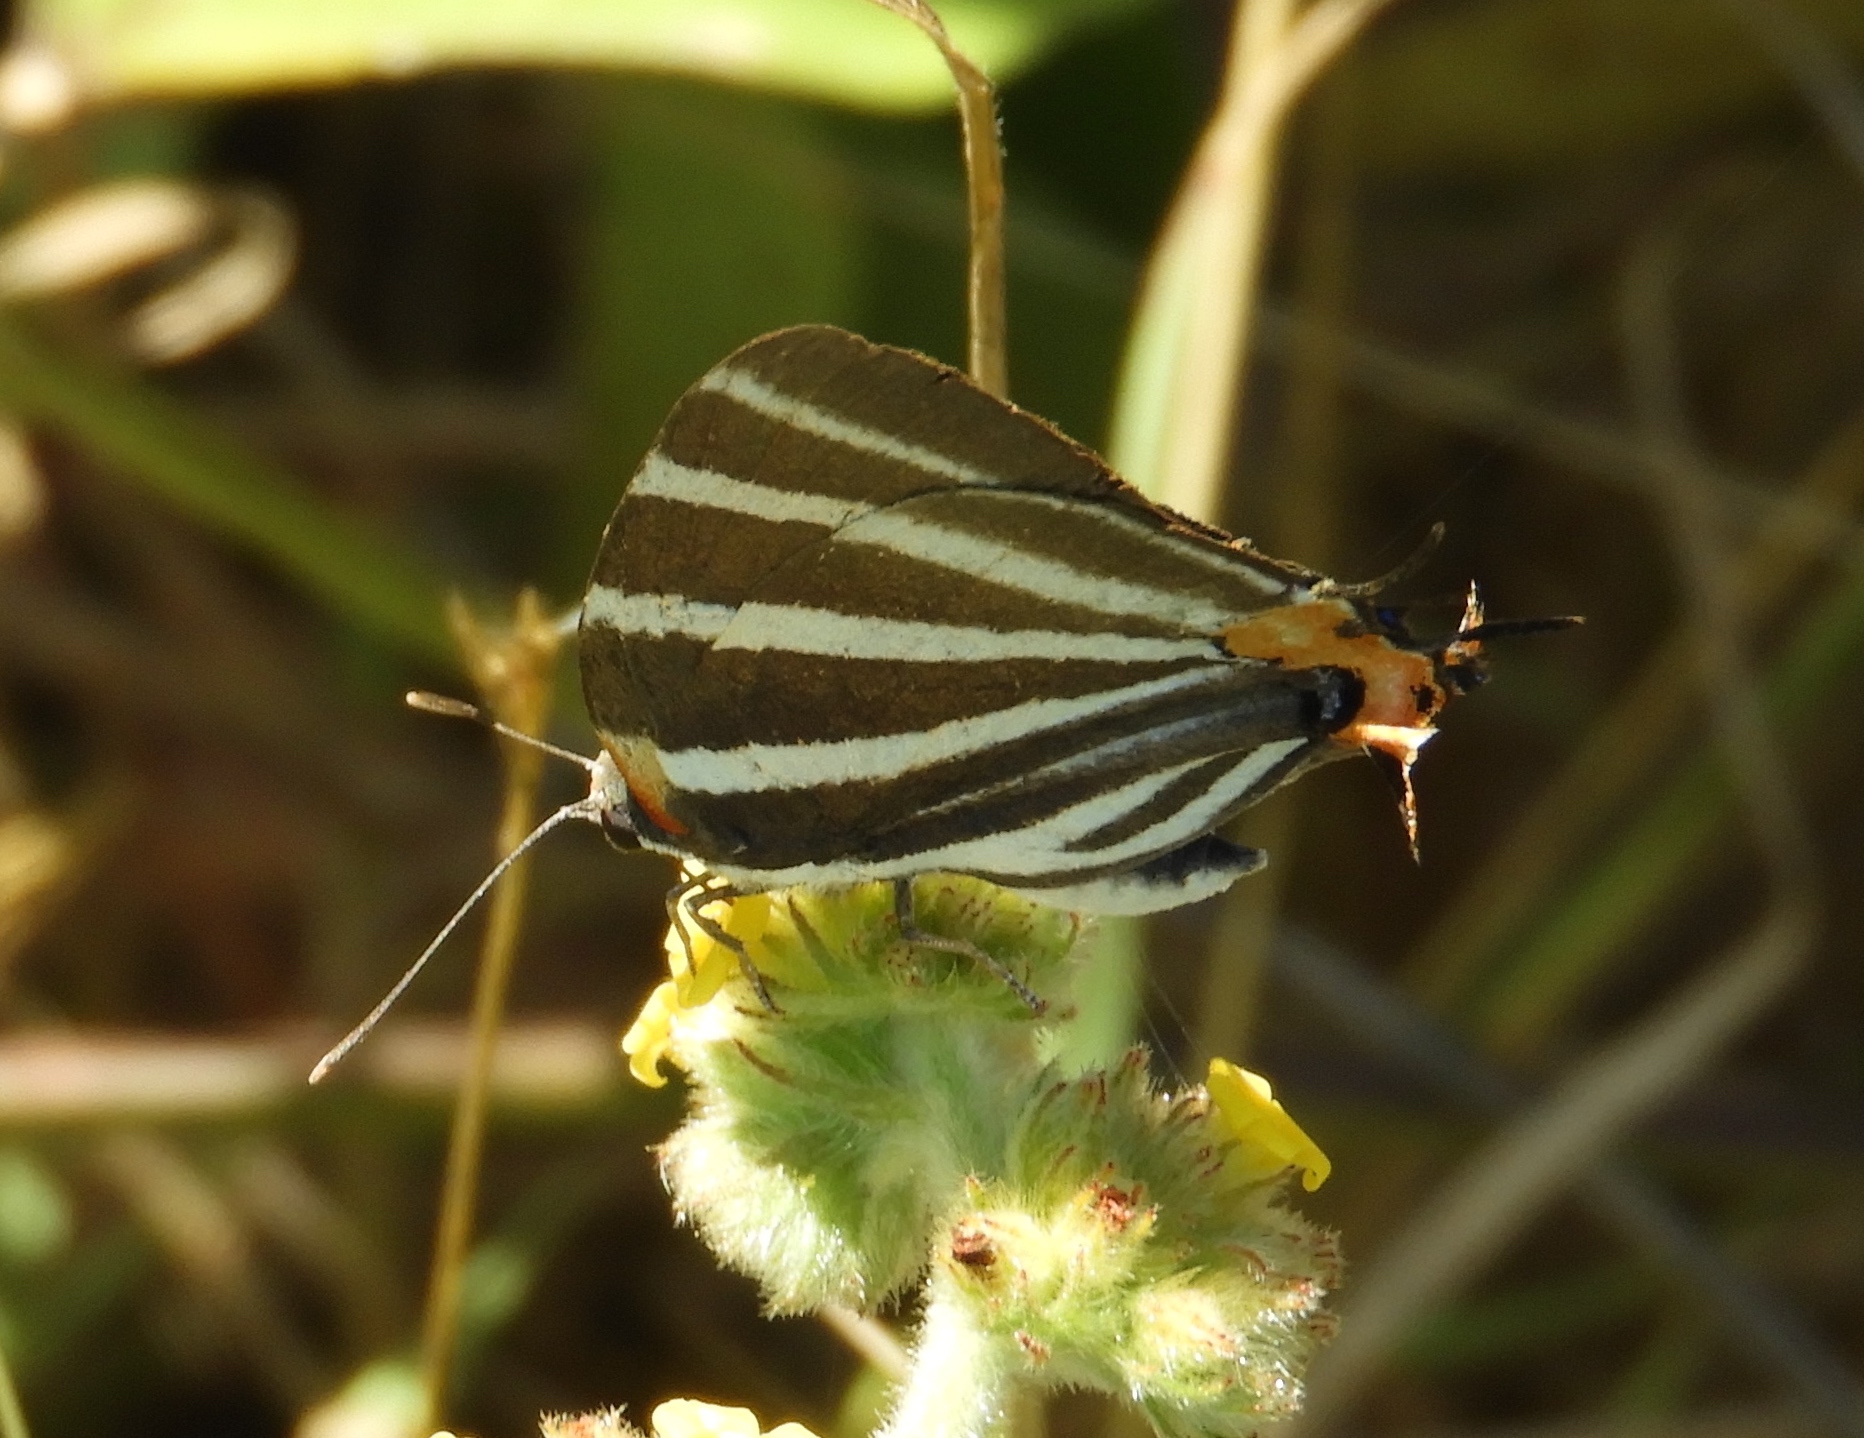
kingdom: Animalia
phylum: Arthropoda
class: Insecta
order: Lepidoptera
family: Lycaenidae
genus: Thecla
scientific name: Thecla bathildis
